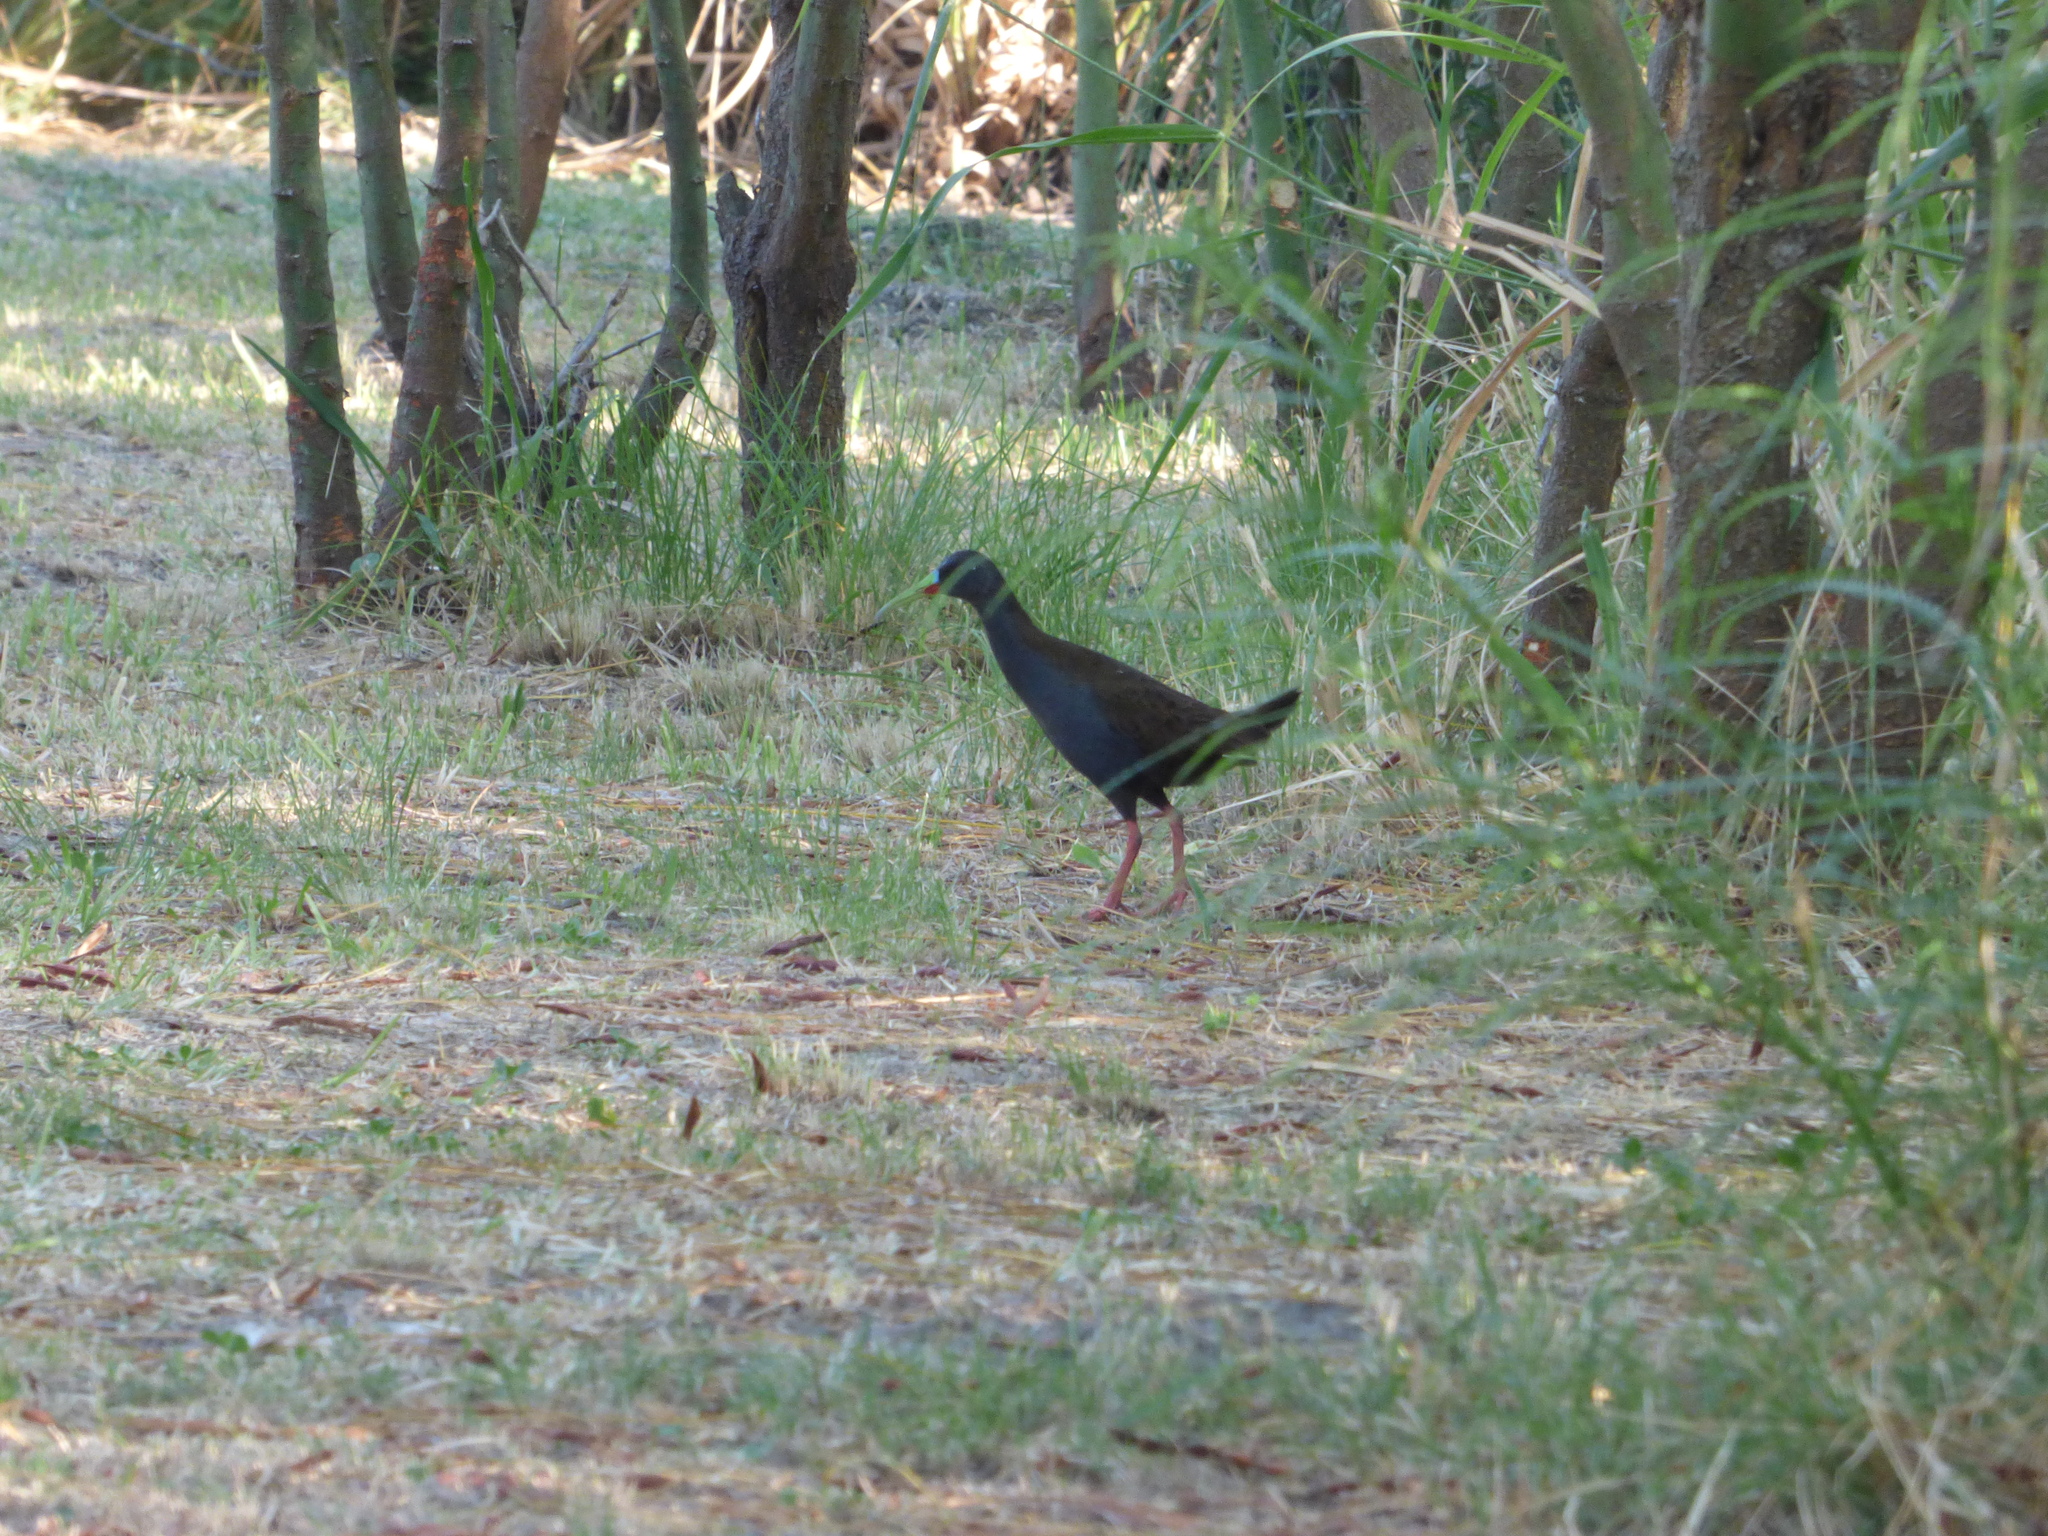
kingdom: Animalia
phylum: Chordata
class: Aves
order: Gruiformes
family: Rallidae
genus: Pardirallus
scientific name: Pardirallus sanguinolentus
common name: Plumbeous rail
